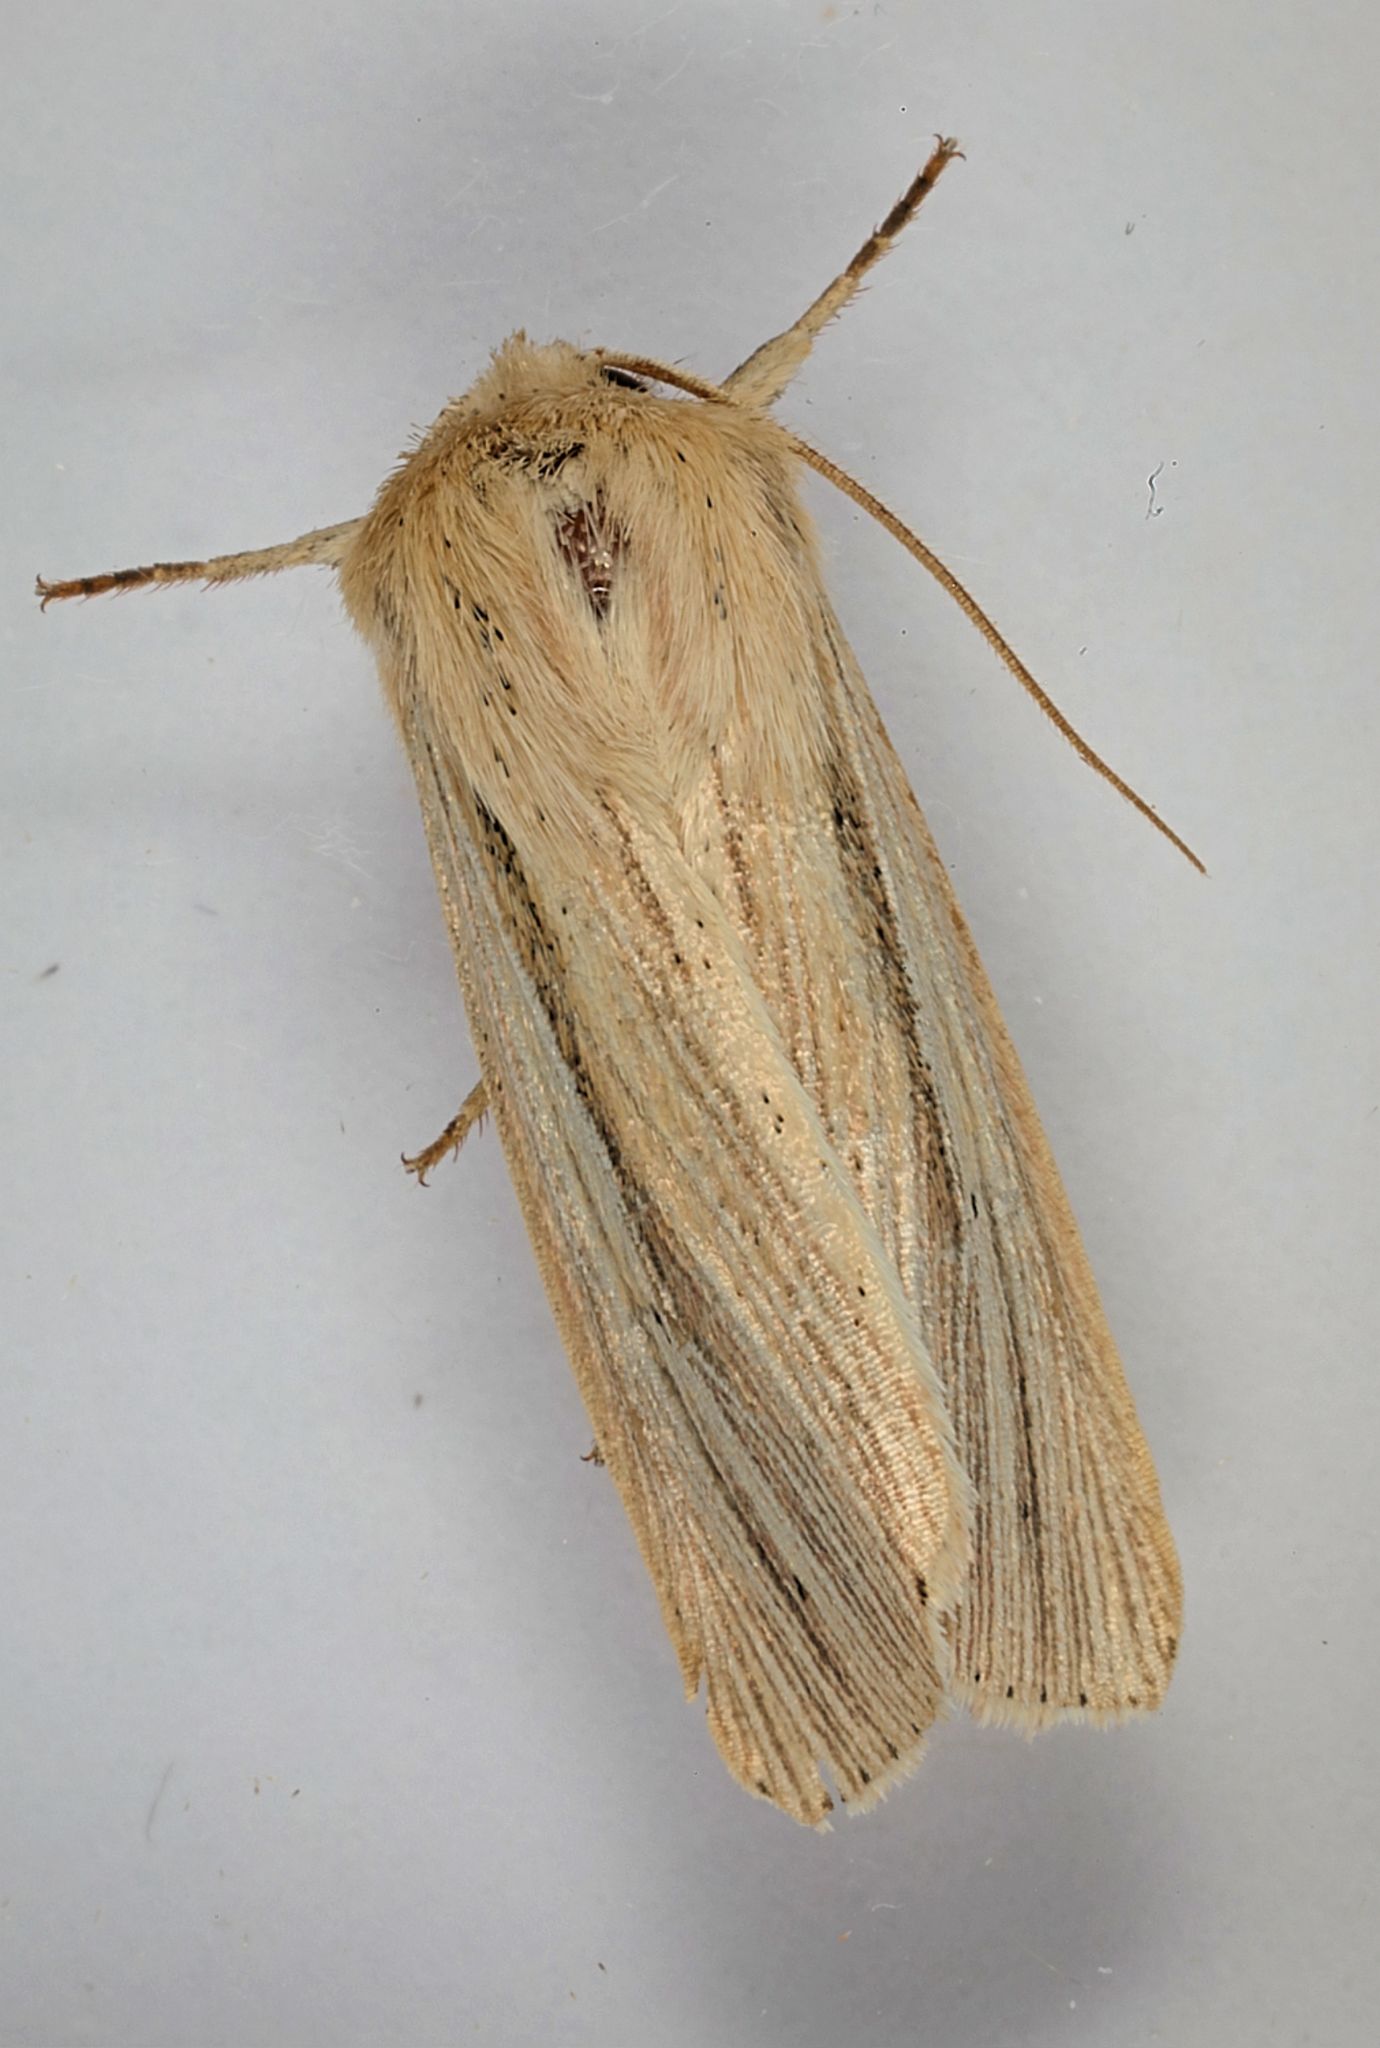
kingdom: Animalia
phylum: Arthropoda
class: Insecta
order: Lepidoptera
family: Noctuidae
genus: Mythimna
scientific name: Mythimna pallens
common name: Common wainscot
